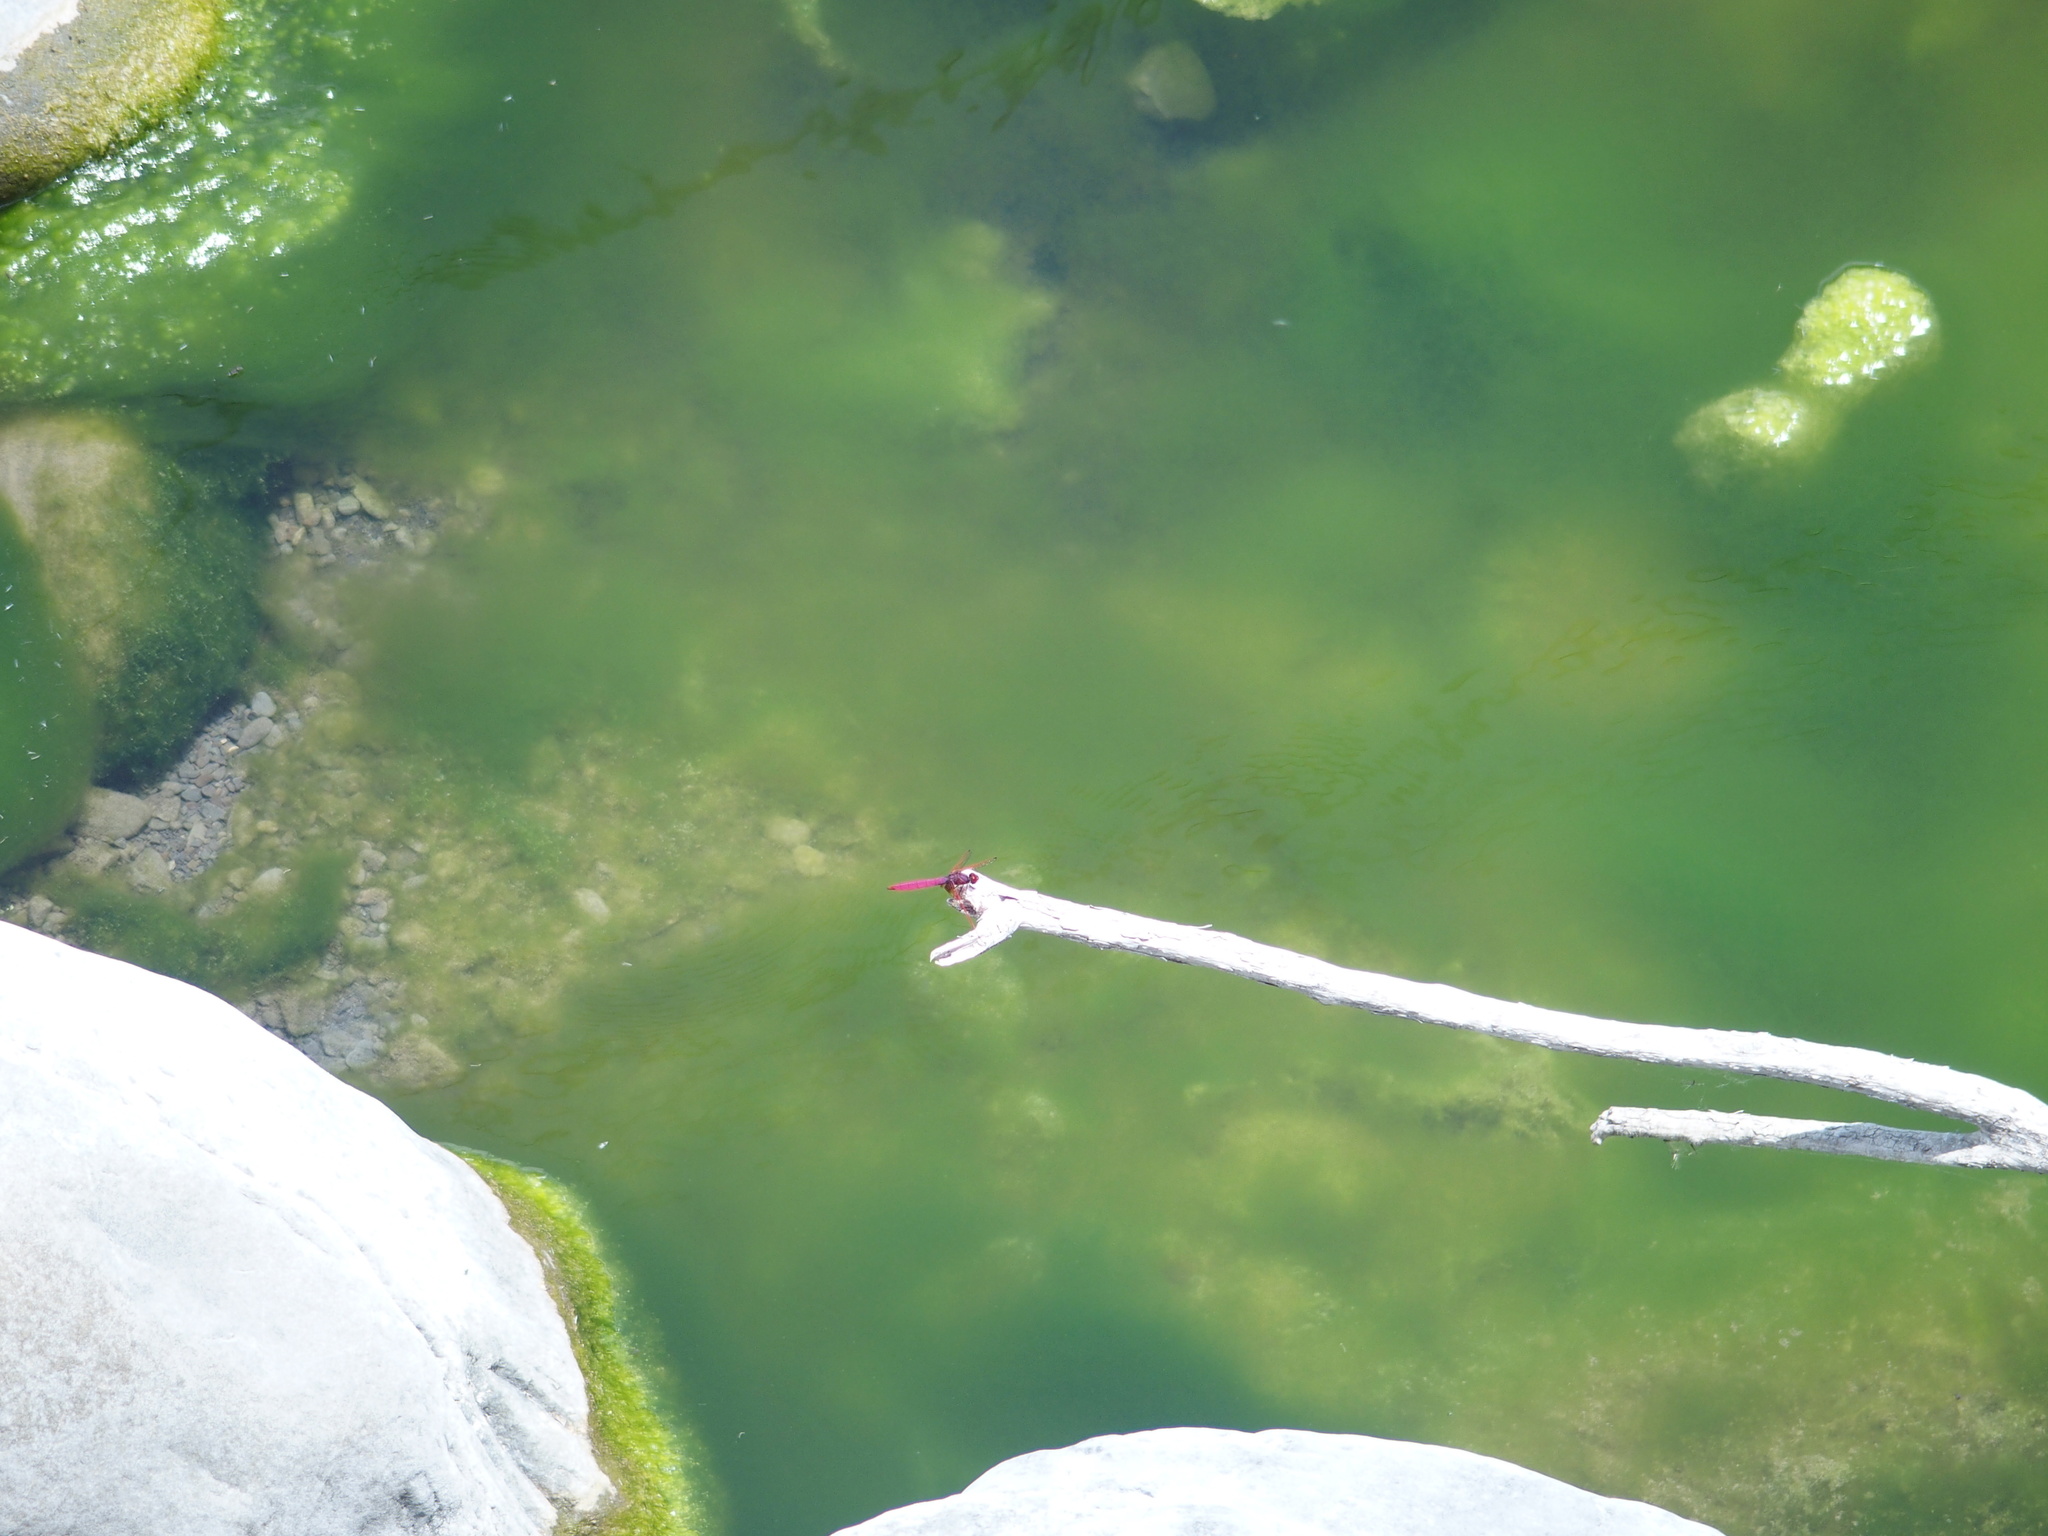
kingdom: Animalia
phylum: Arthropoda
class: Insecta
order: Odonata
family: Libellulidae
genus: Trithemis
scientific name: Trithemis aurora
